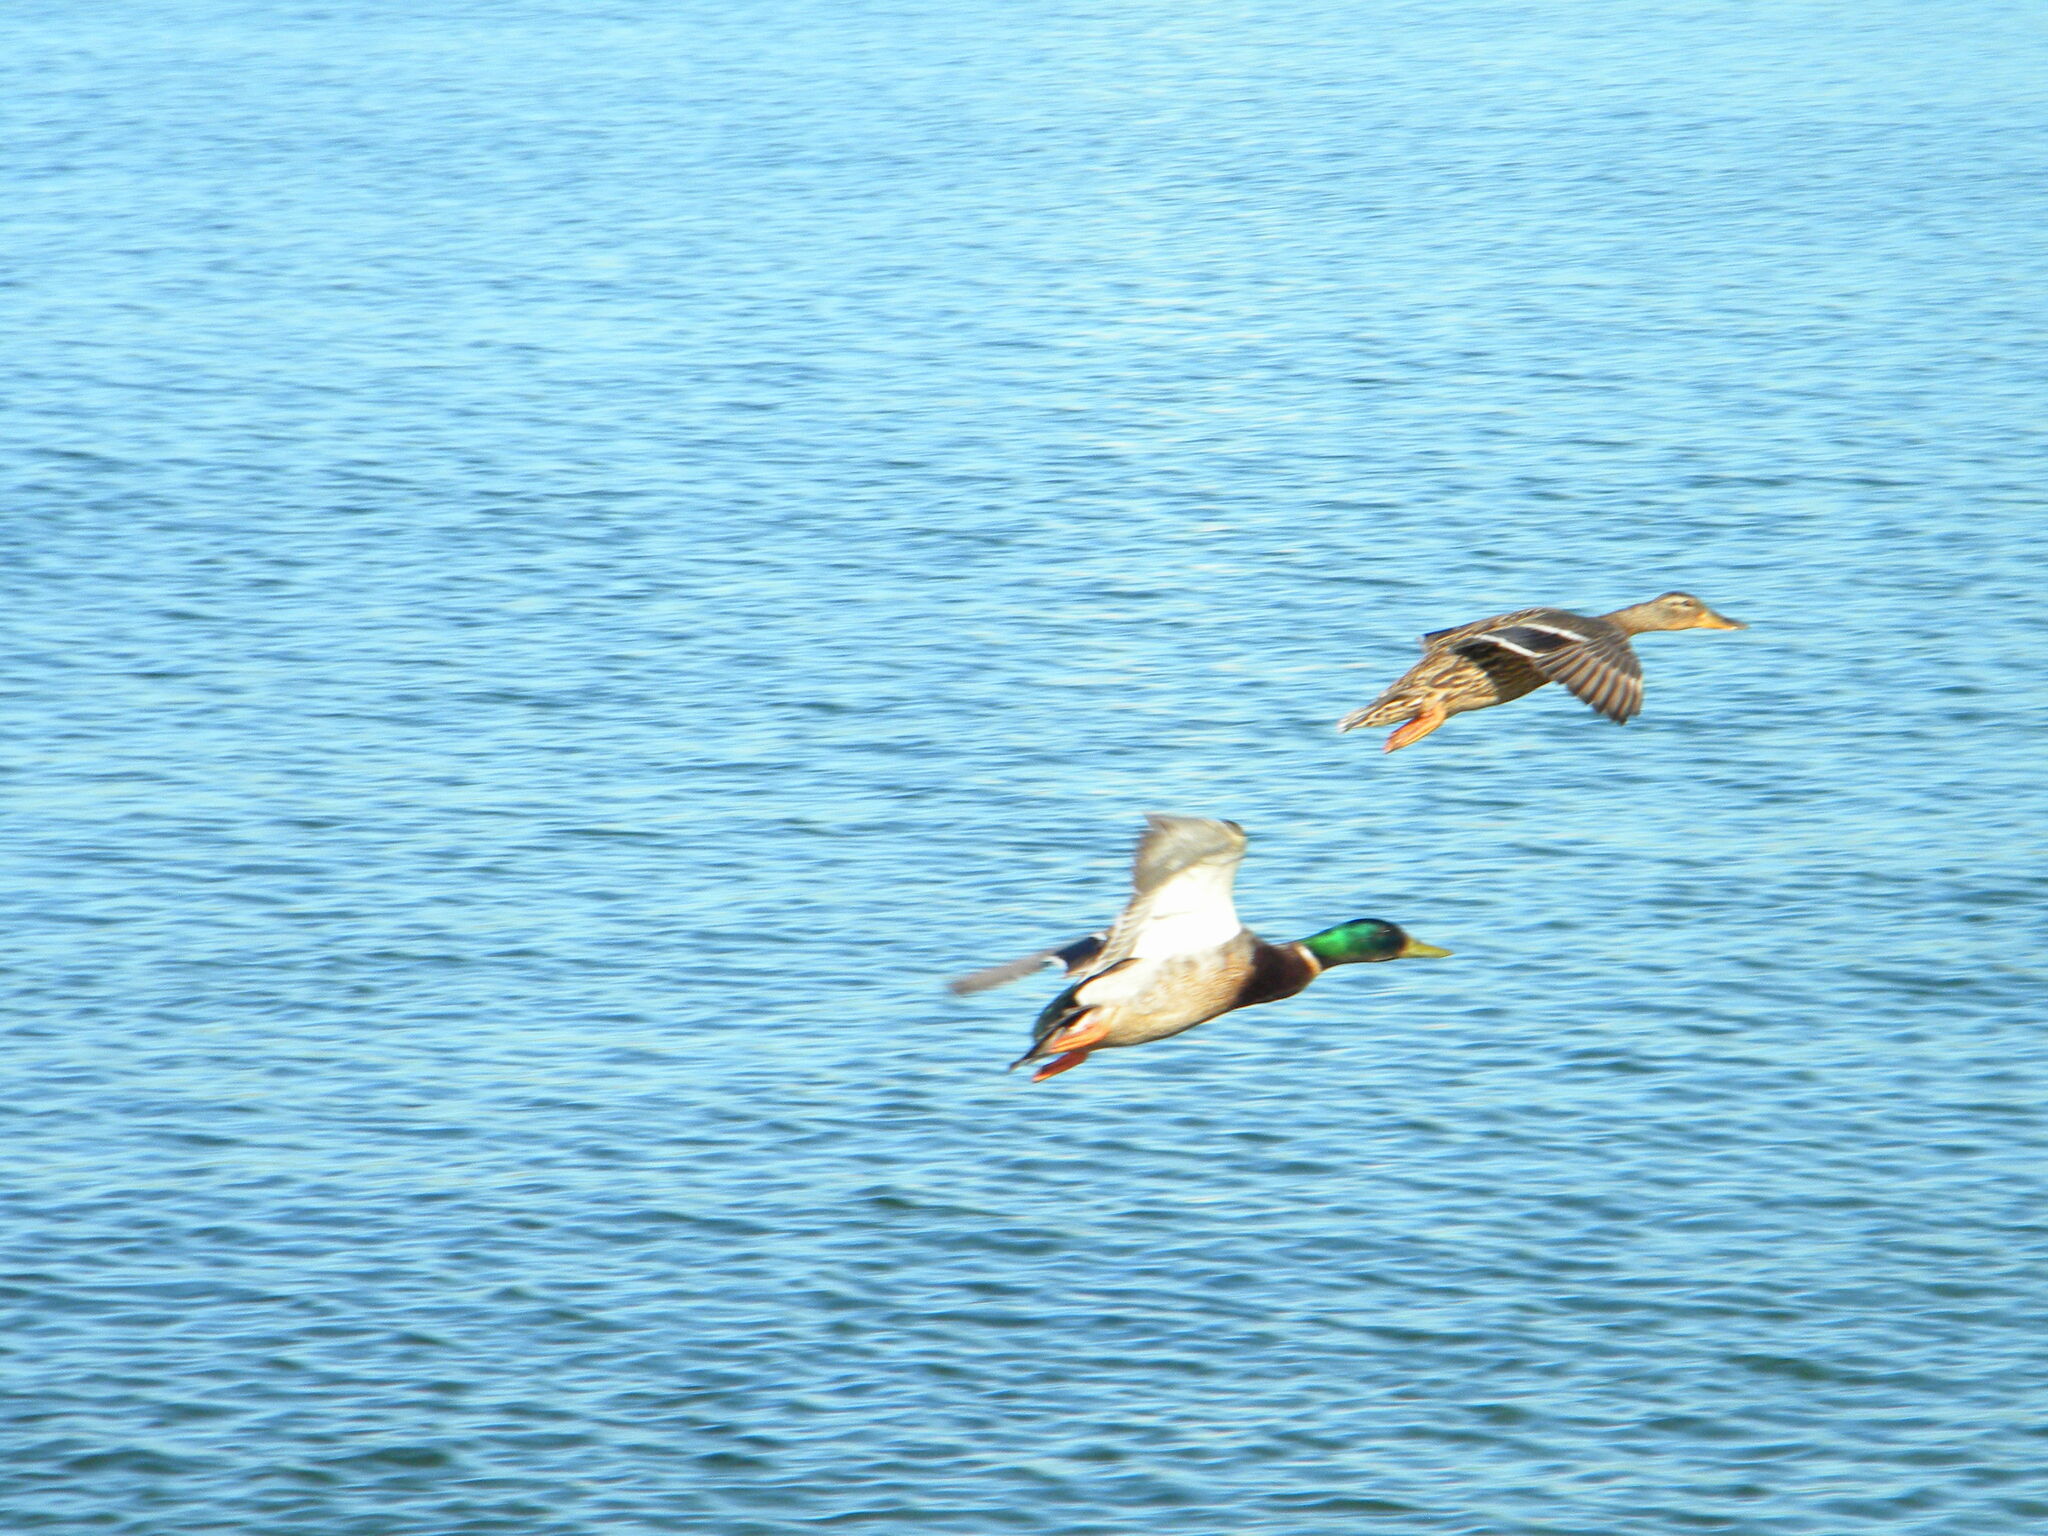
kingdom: Animalia
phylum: Chordata
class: Aves
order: Anseriformes
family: Anatidae
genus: Anas
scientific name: Anas platyrhynchos
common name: Mallard
